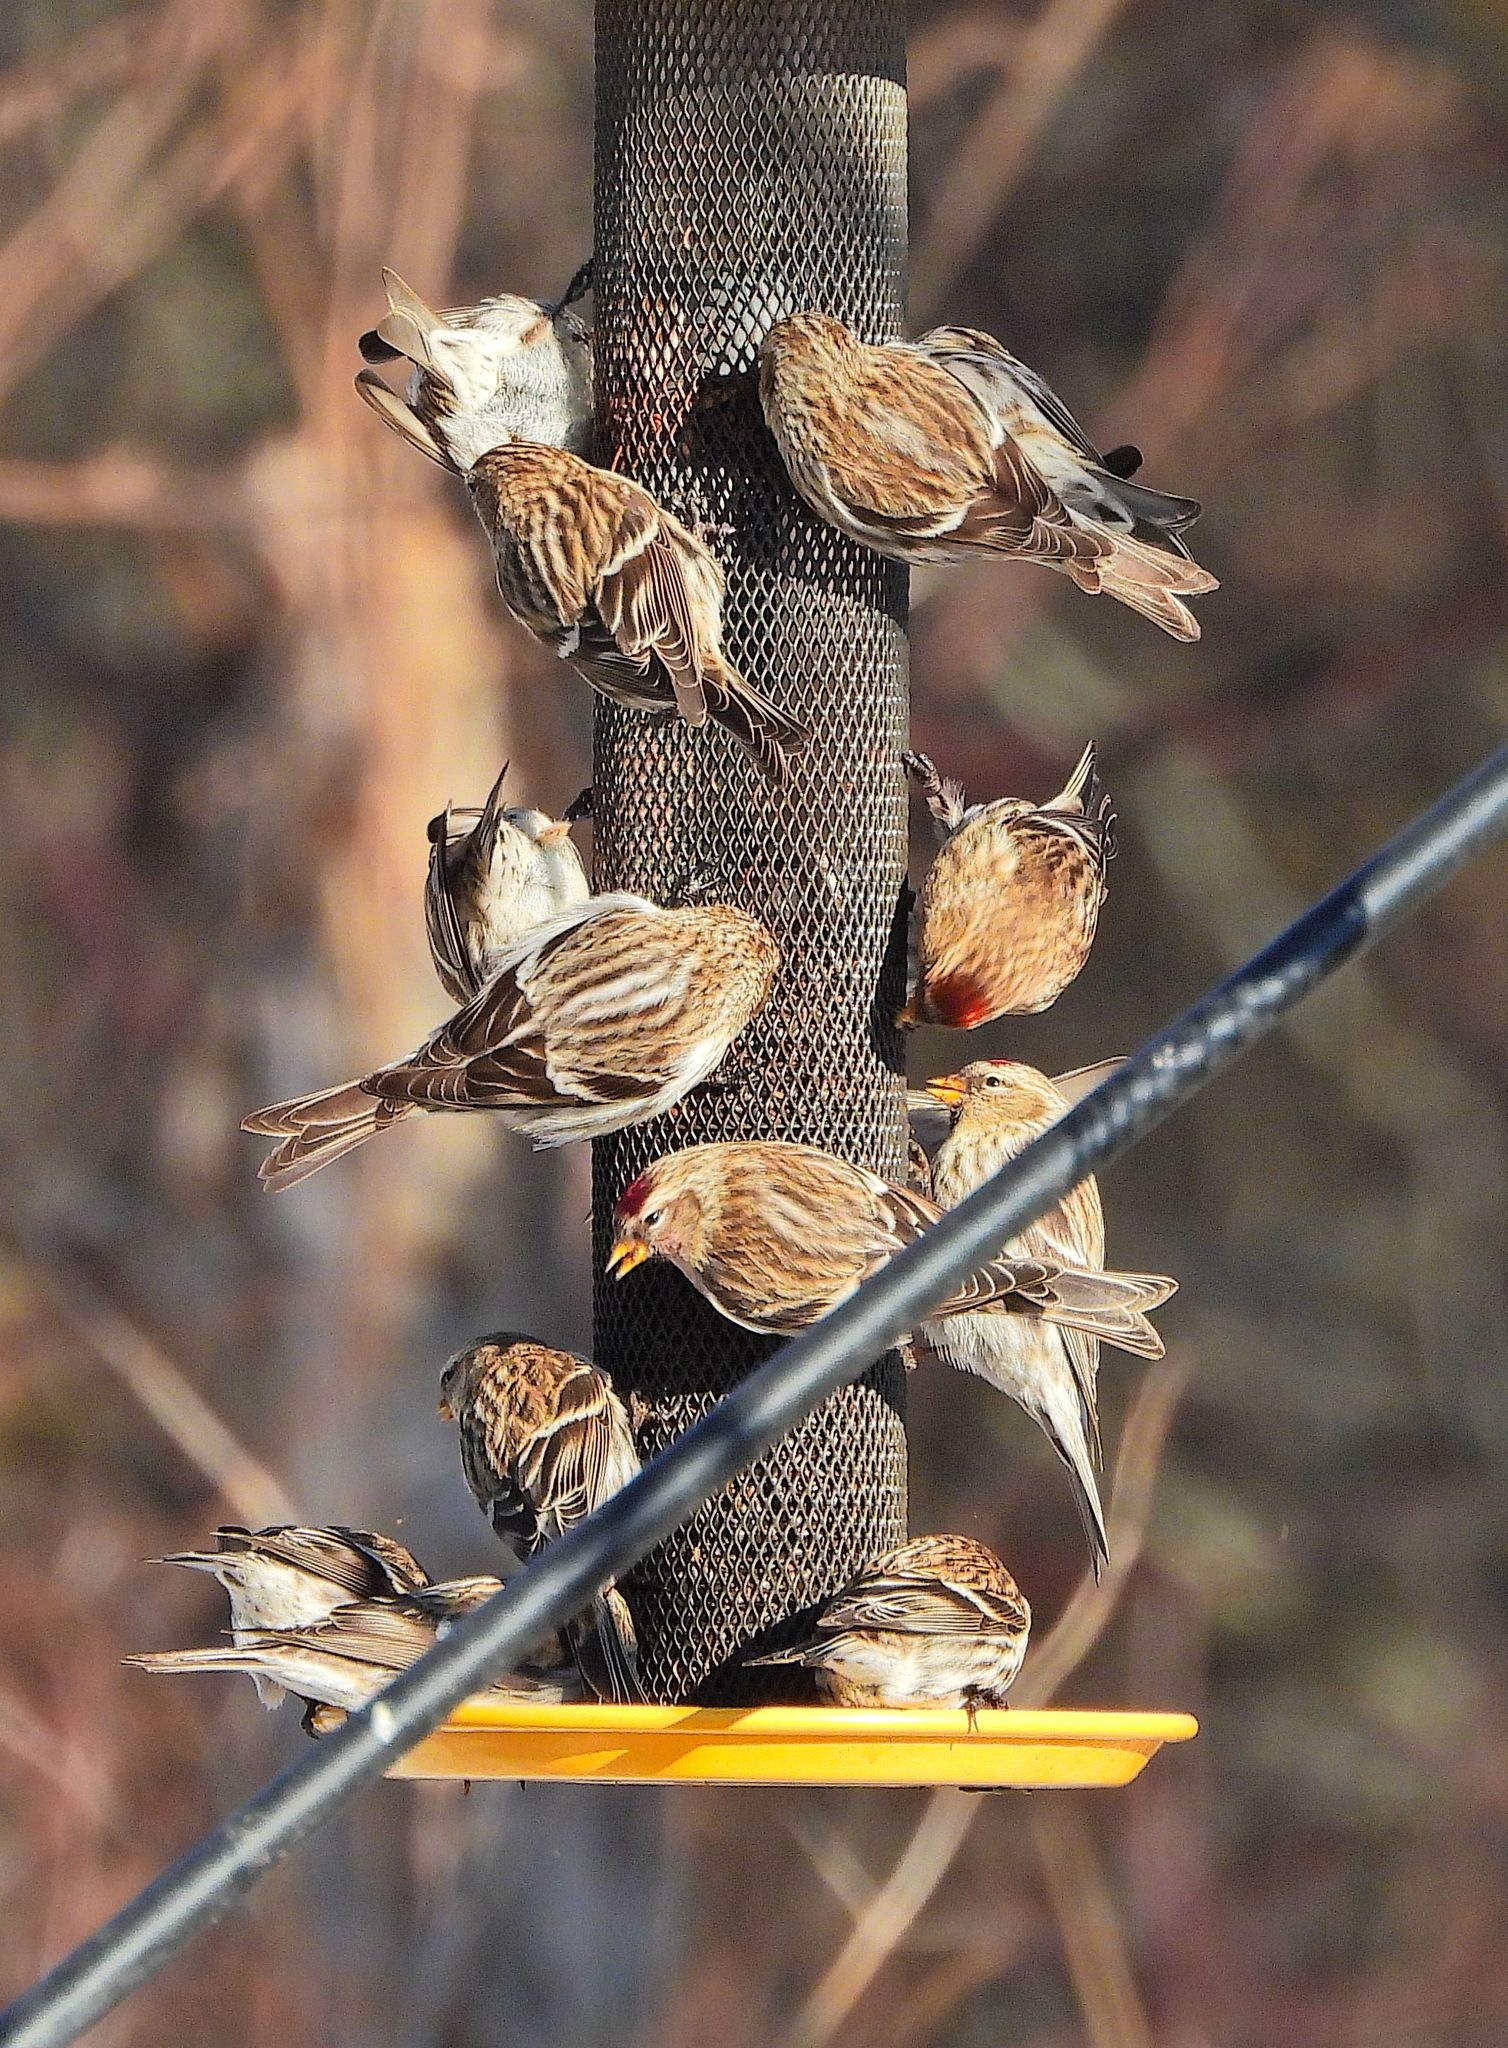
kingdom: Animalia
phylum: Chordata
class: Aves
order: Passeriformes
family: Fringillidae
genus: Acanthis
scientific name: Acanthis flammea
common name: Common redpoll
